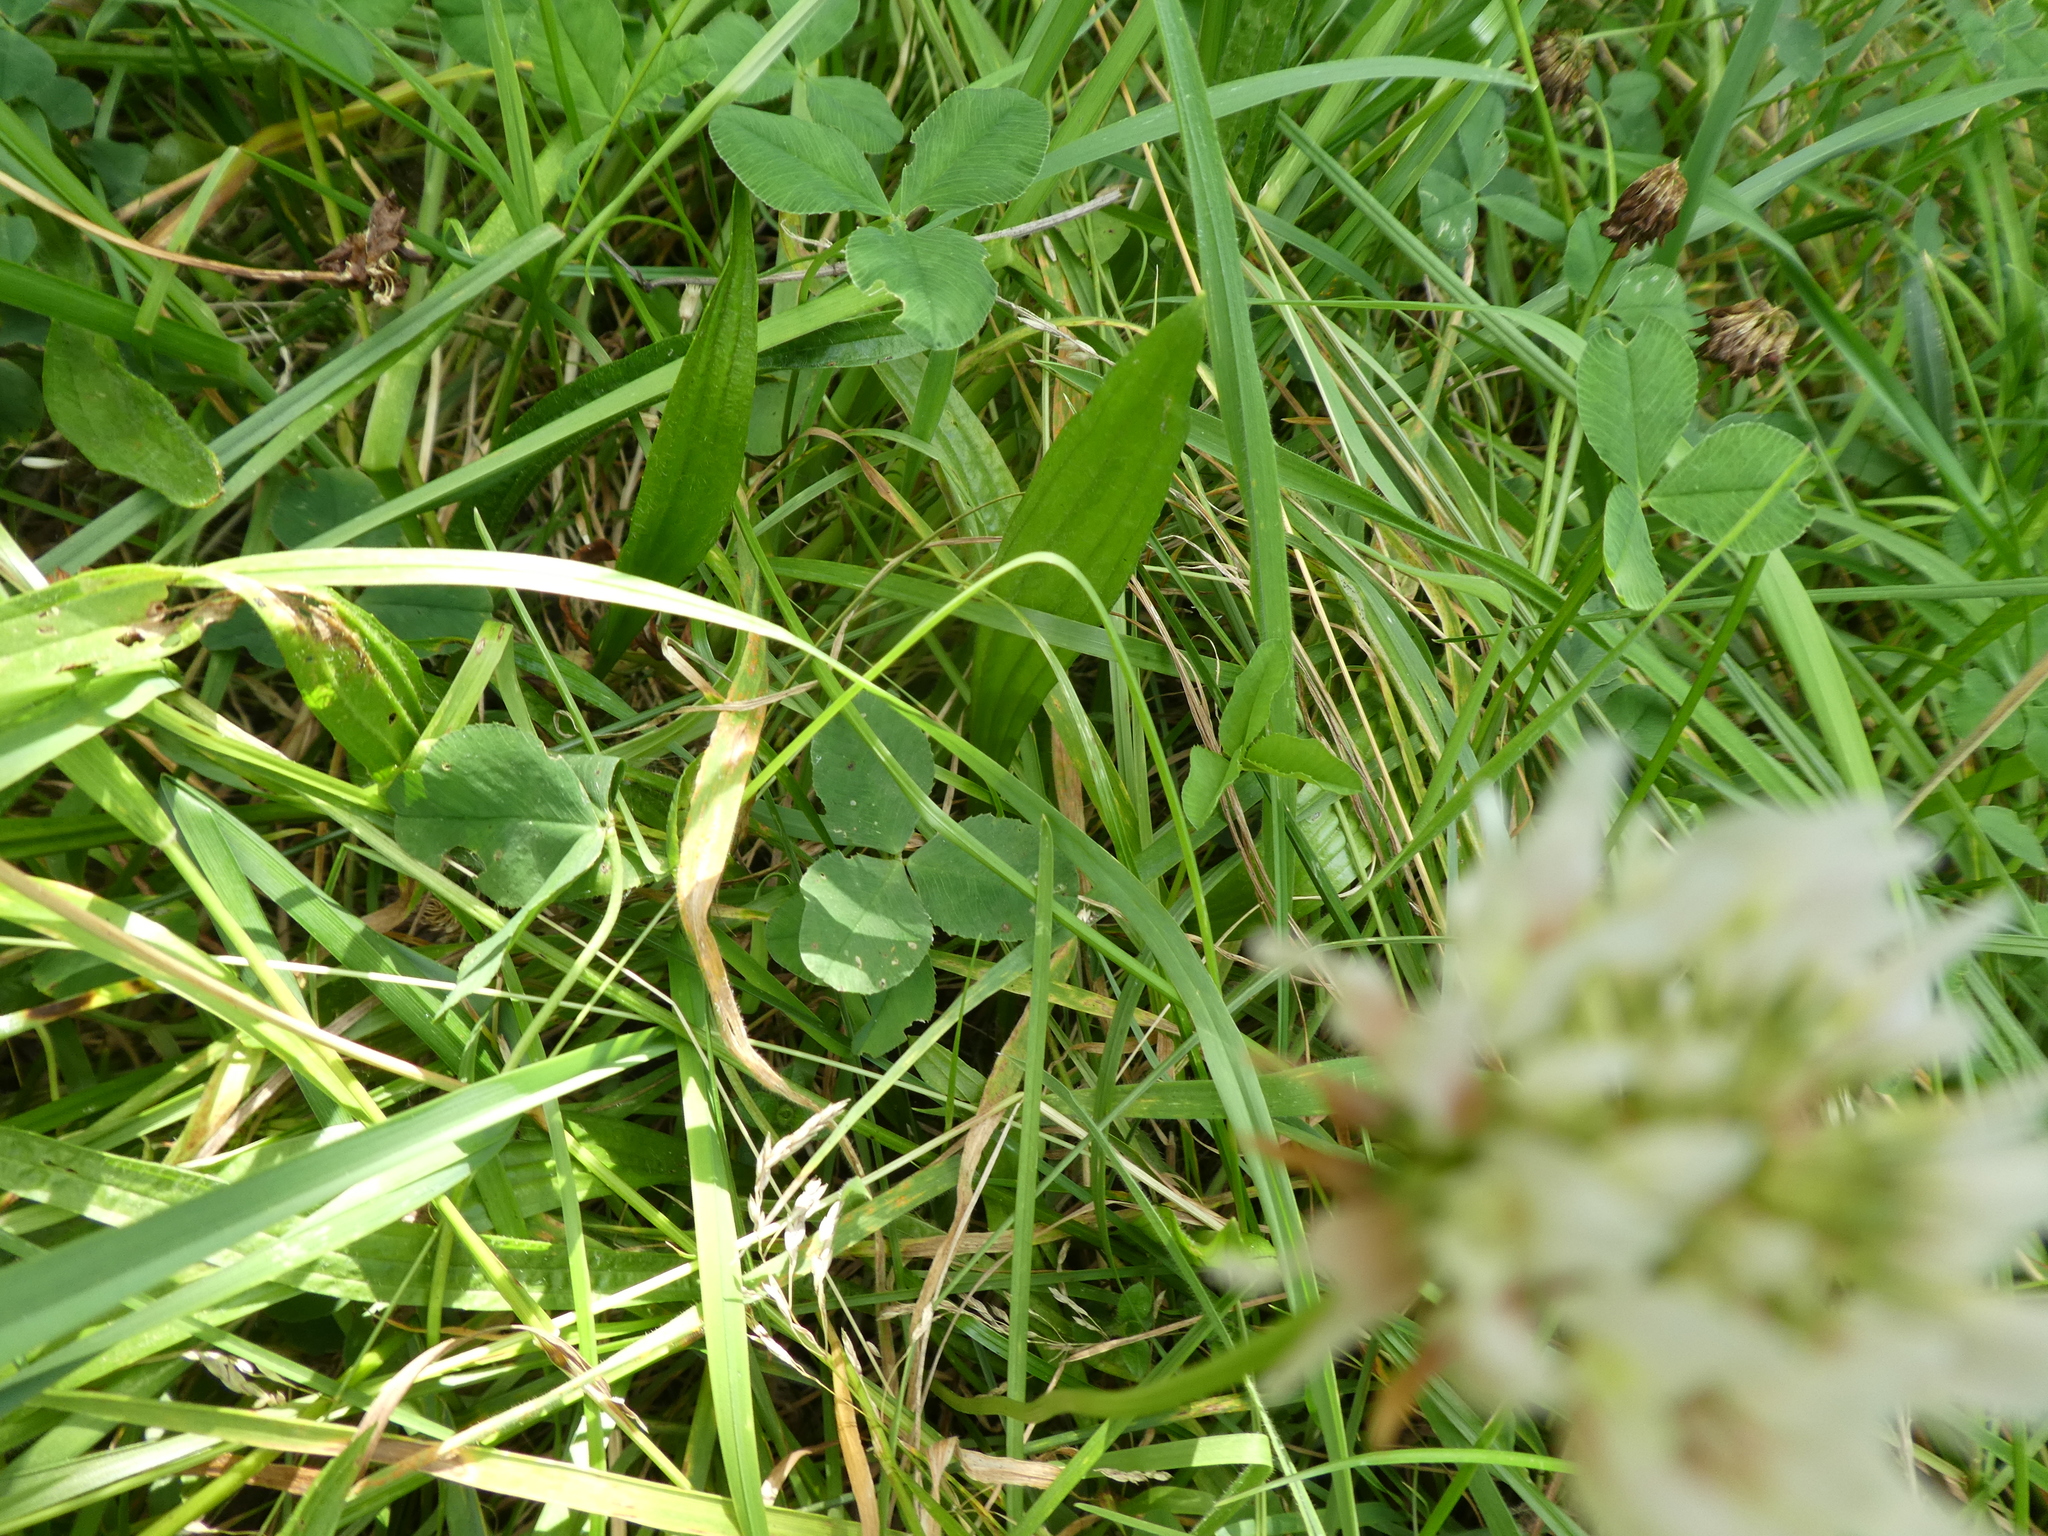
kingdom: Plantae
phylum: Tracheophyta
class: Magnoliopsida
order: Fabales
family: Fabaceae
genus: Trifolium
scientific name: Trifolium repens
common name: White clover
